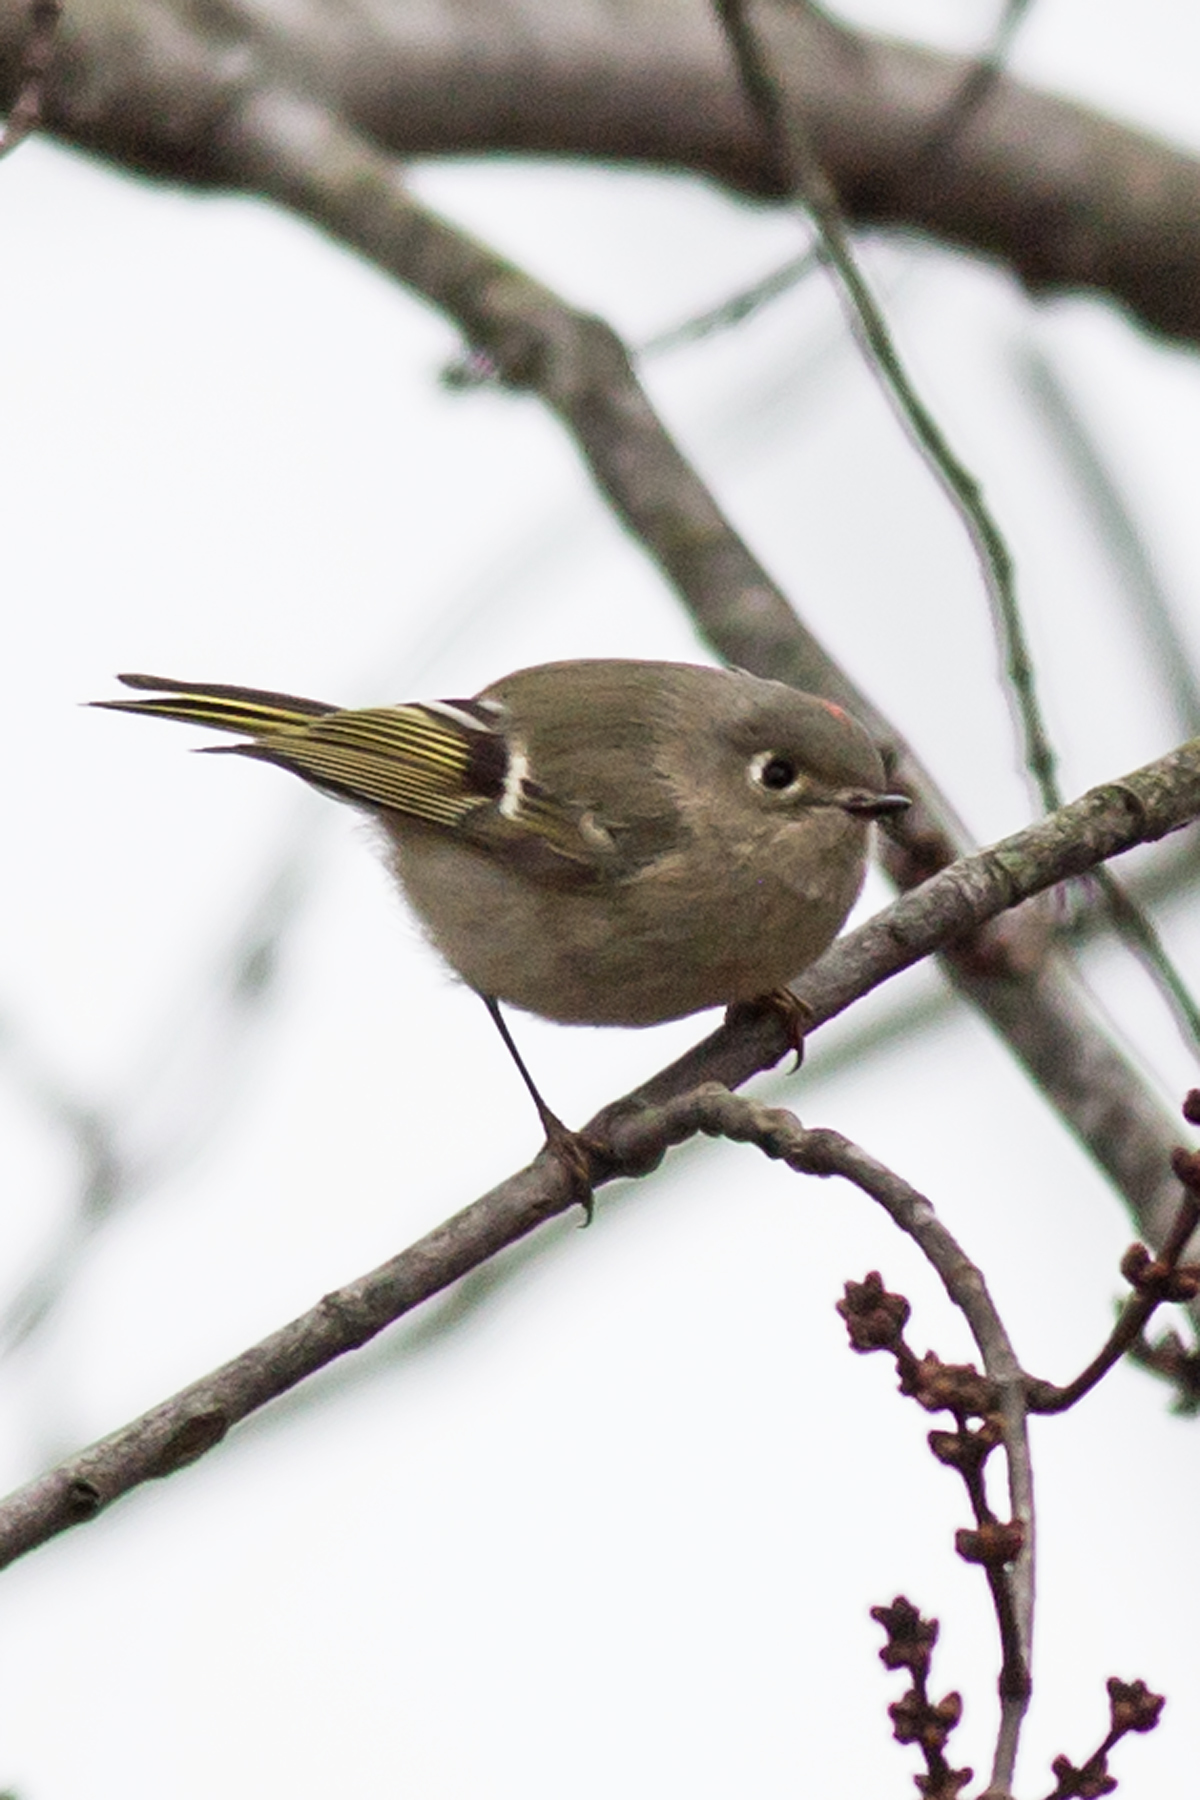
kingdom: Animalia
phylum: Chordata
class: Aves
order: Passeriformes
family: Regulidae
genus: Regulus
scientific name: Regulus calendula
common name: Ruby-crowned kinglet
